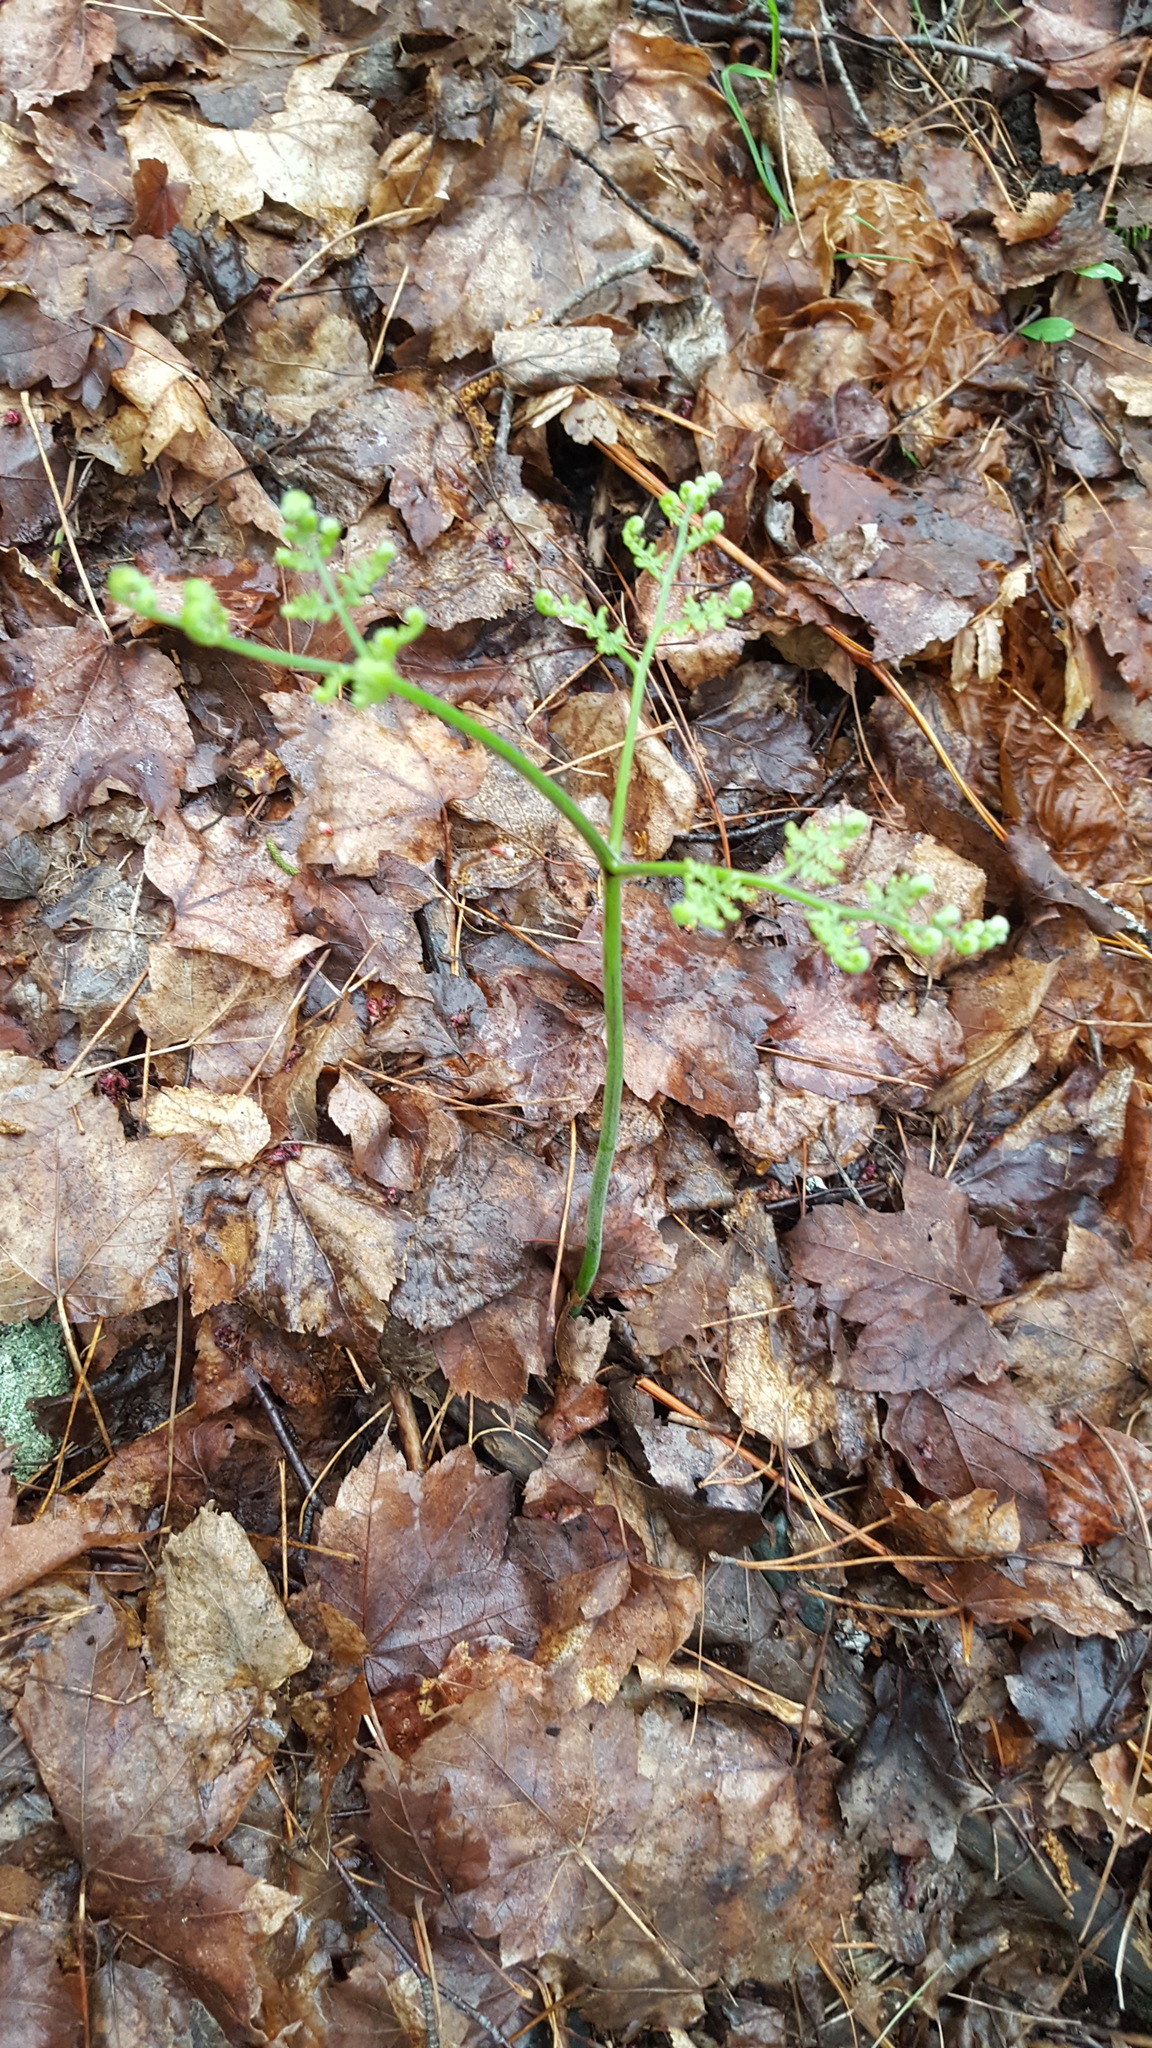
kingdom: Plantae
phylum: Tracheophyta
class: Polypodiopsida
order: Polypodiales
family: Dennstaedtiaceae
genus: Pteridium
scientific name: Pteridium aquilinum
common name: Bracken
